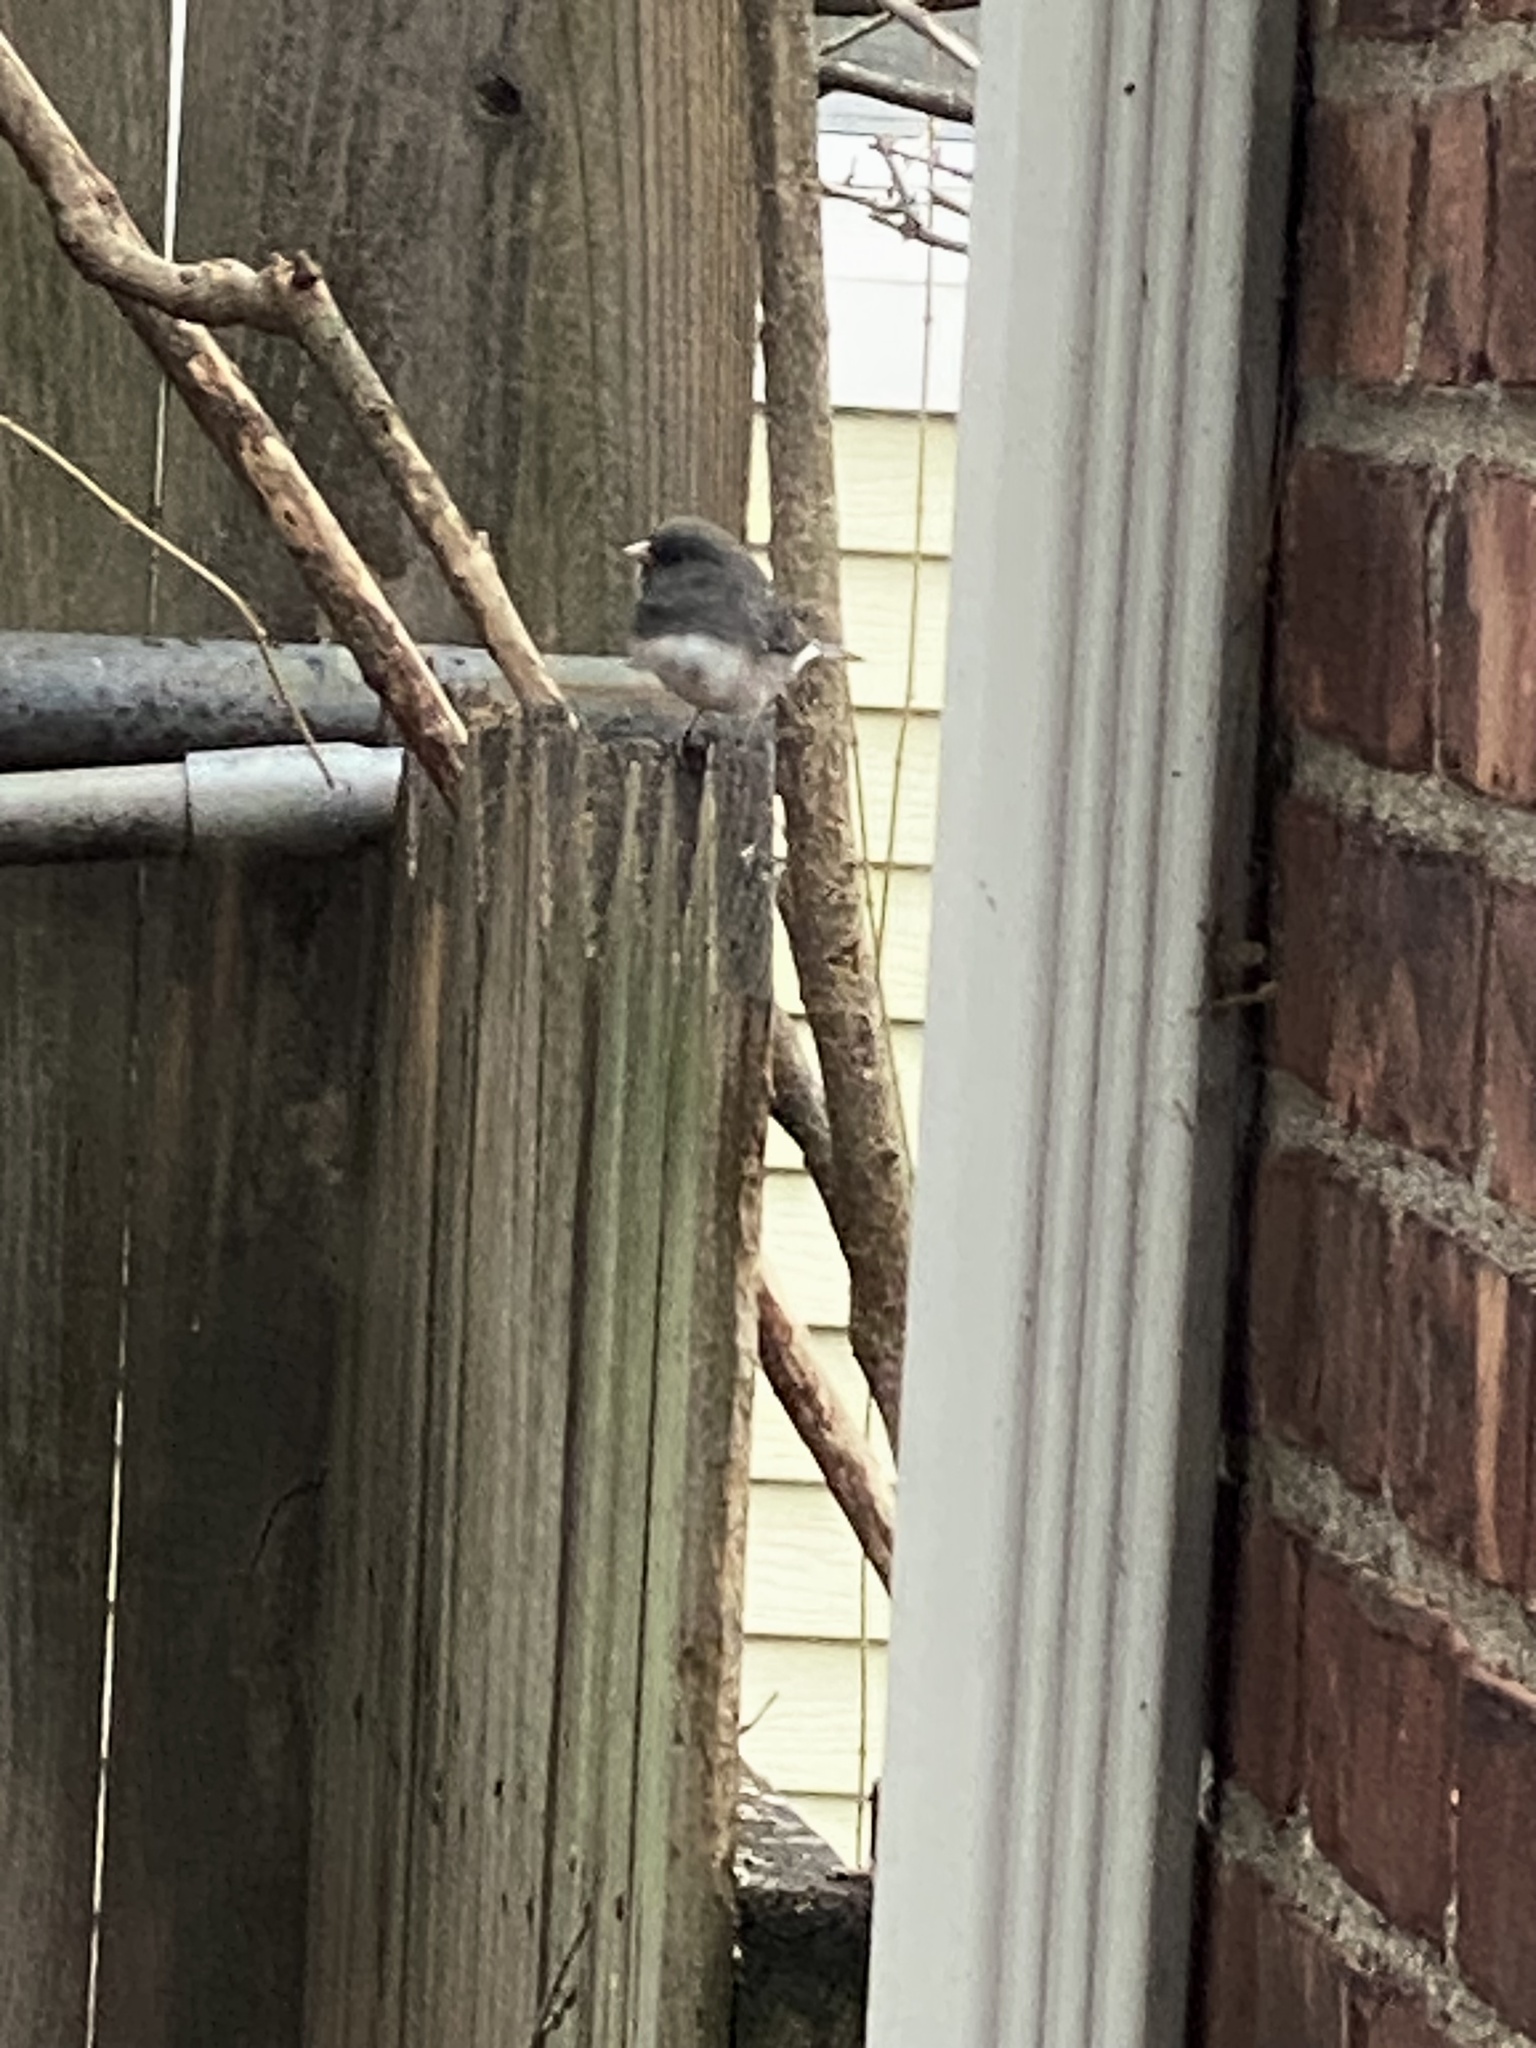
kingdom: Animalia
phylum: Chordata
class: Aves
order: Passeriformes
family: Passerellidae
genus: Junco
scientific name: Junco hyemalis
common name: Dark-eyed junco
